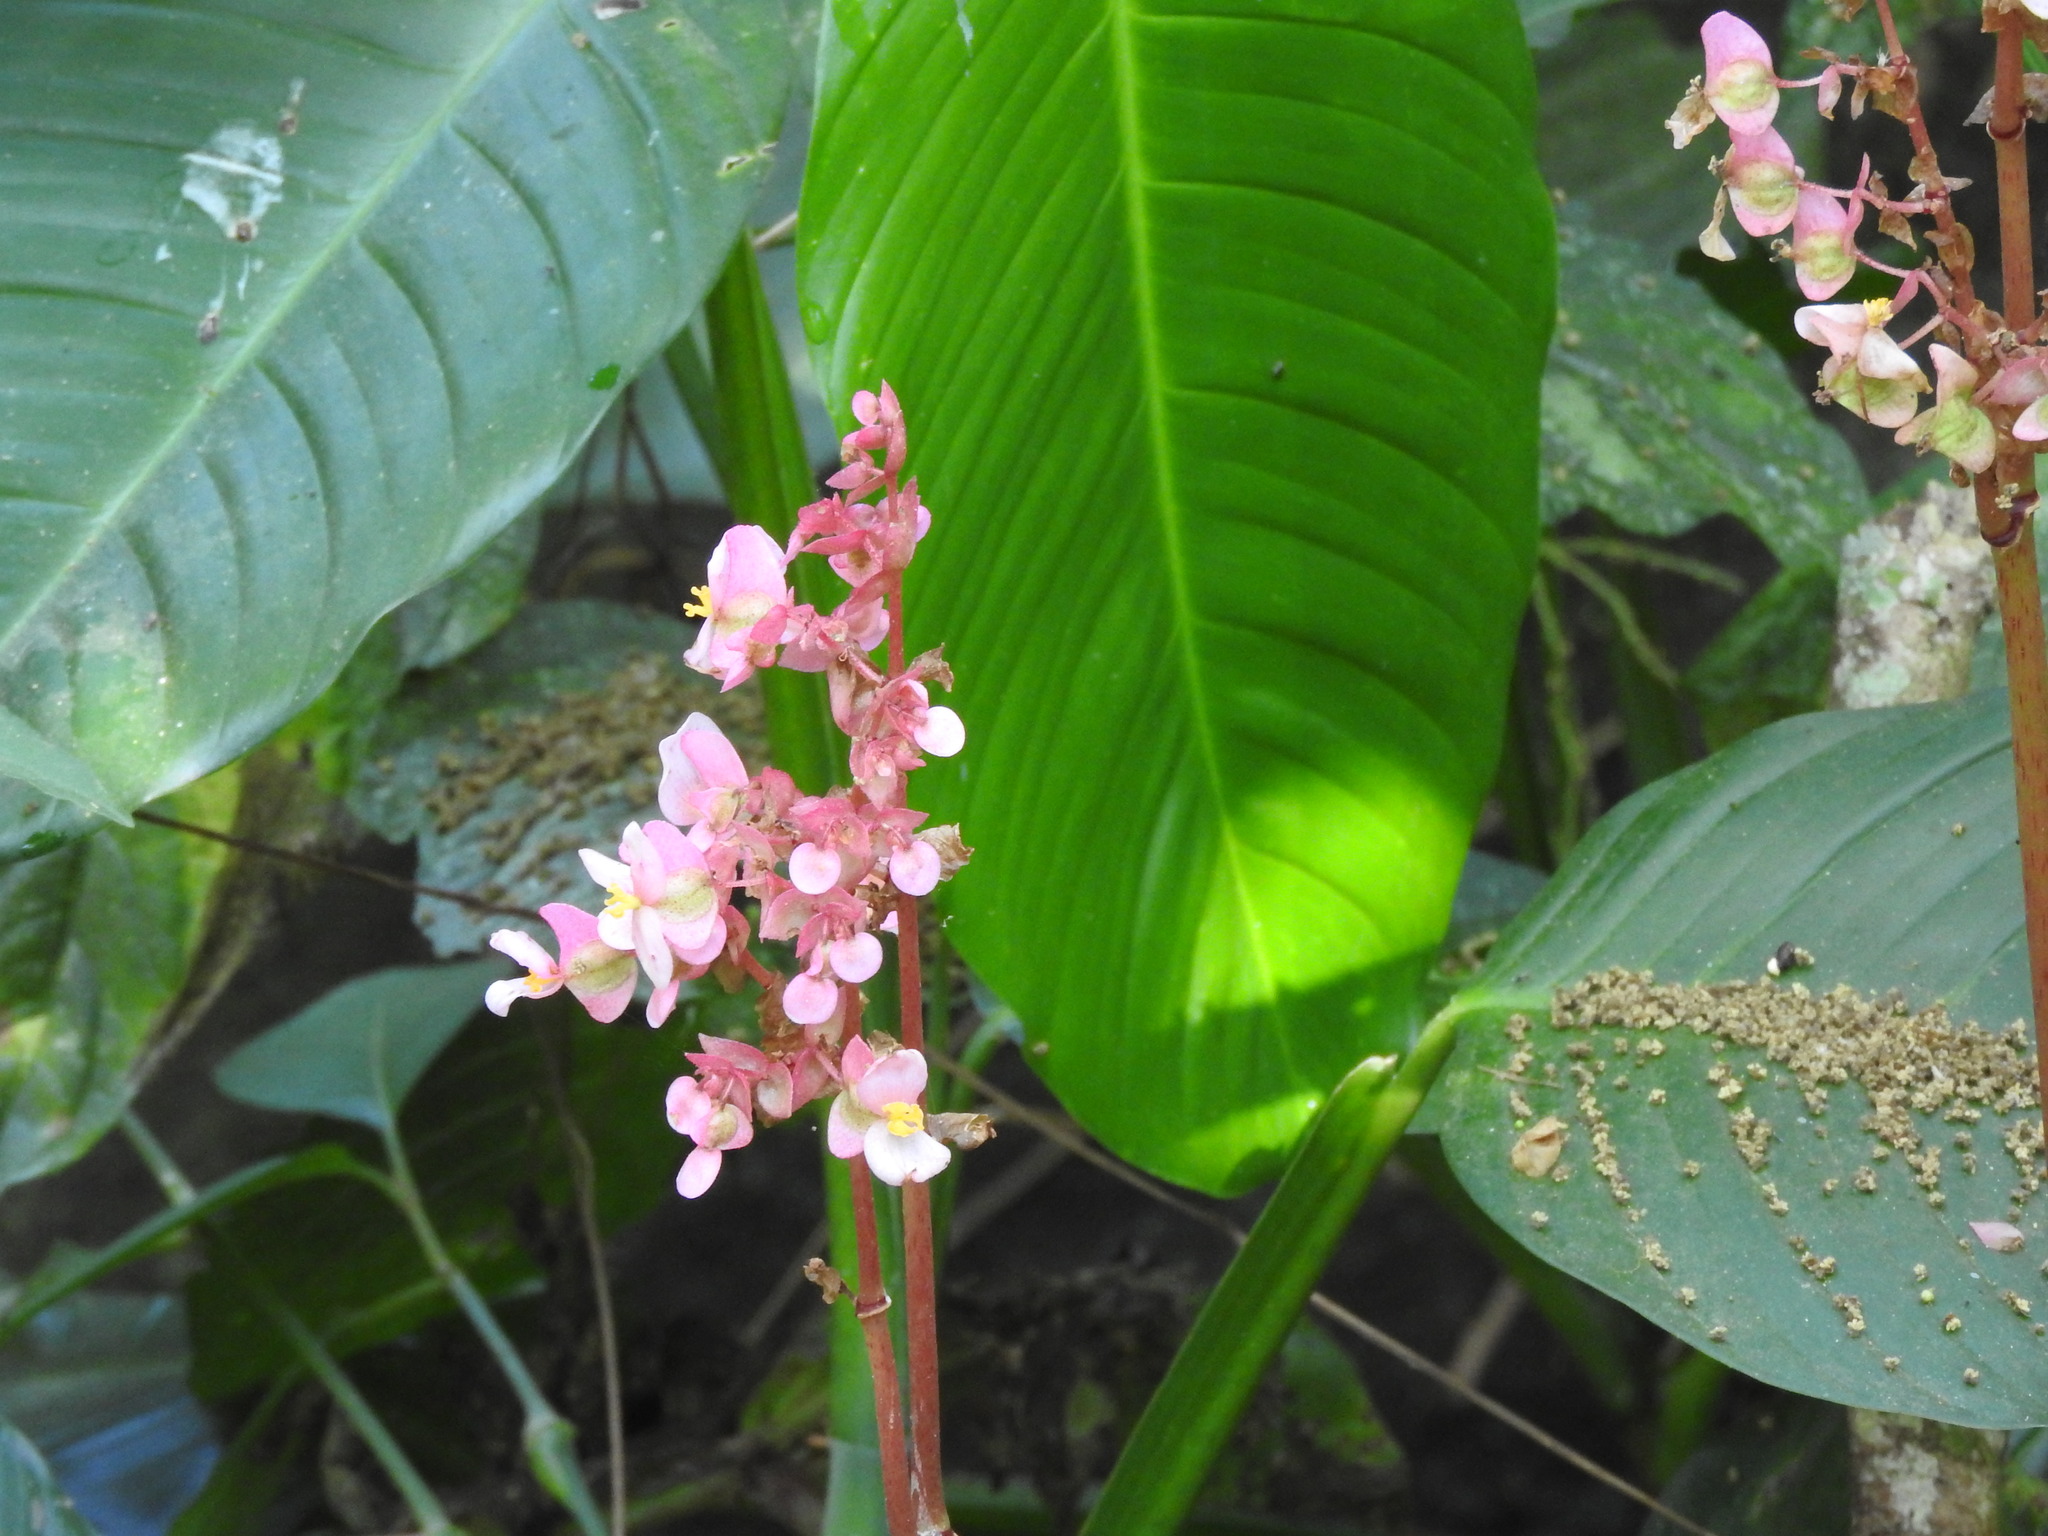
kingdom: Plantae
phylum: Tracheophyta
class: Magnoliopsida
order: Cucurbitales
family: Begoniaceae
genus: Begonia
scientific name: Begonia heracleifolia
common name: Star begonia
